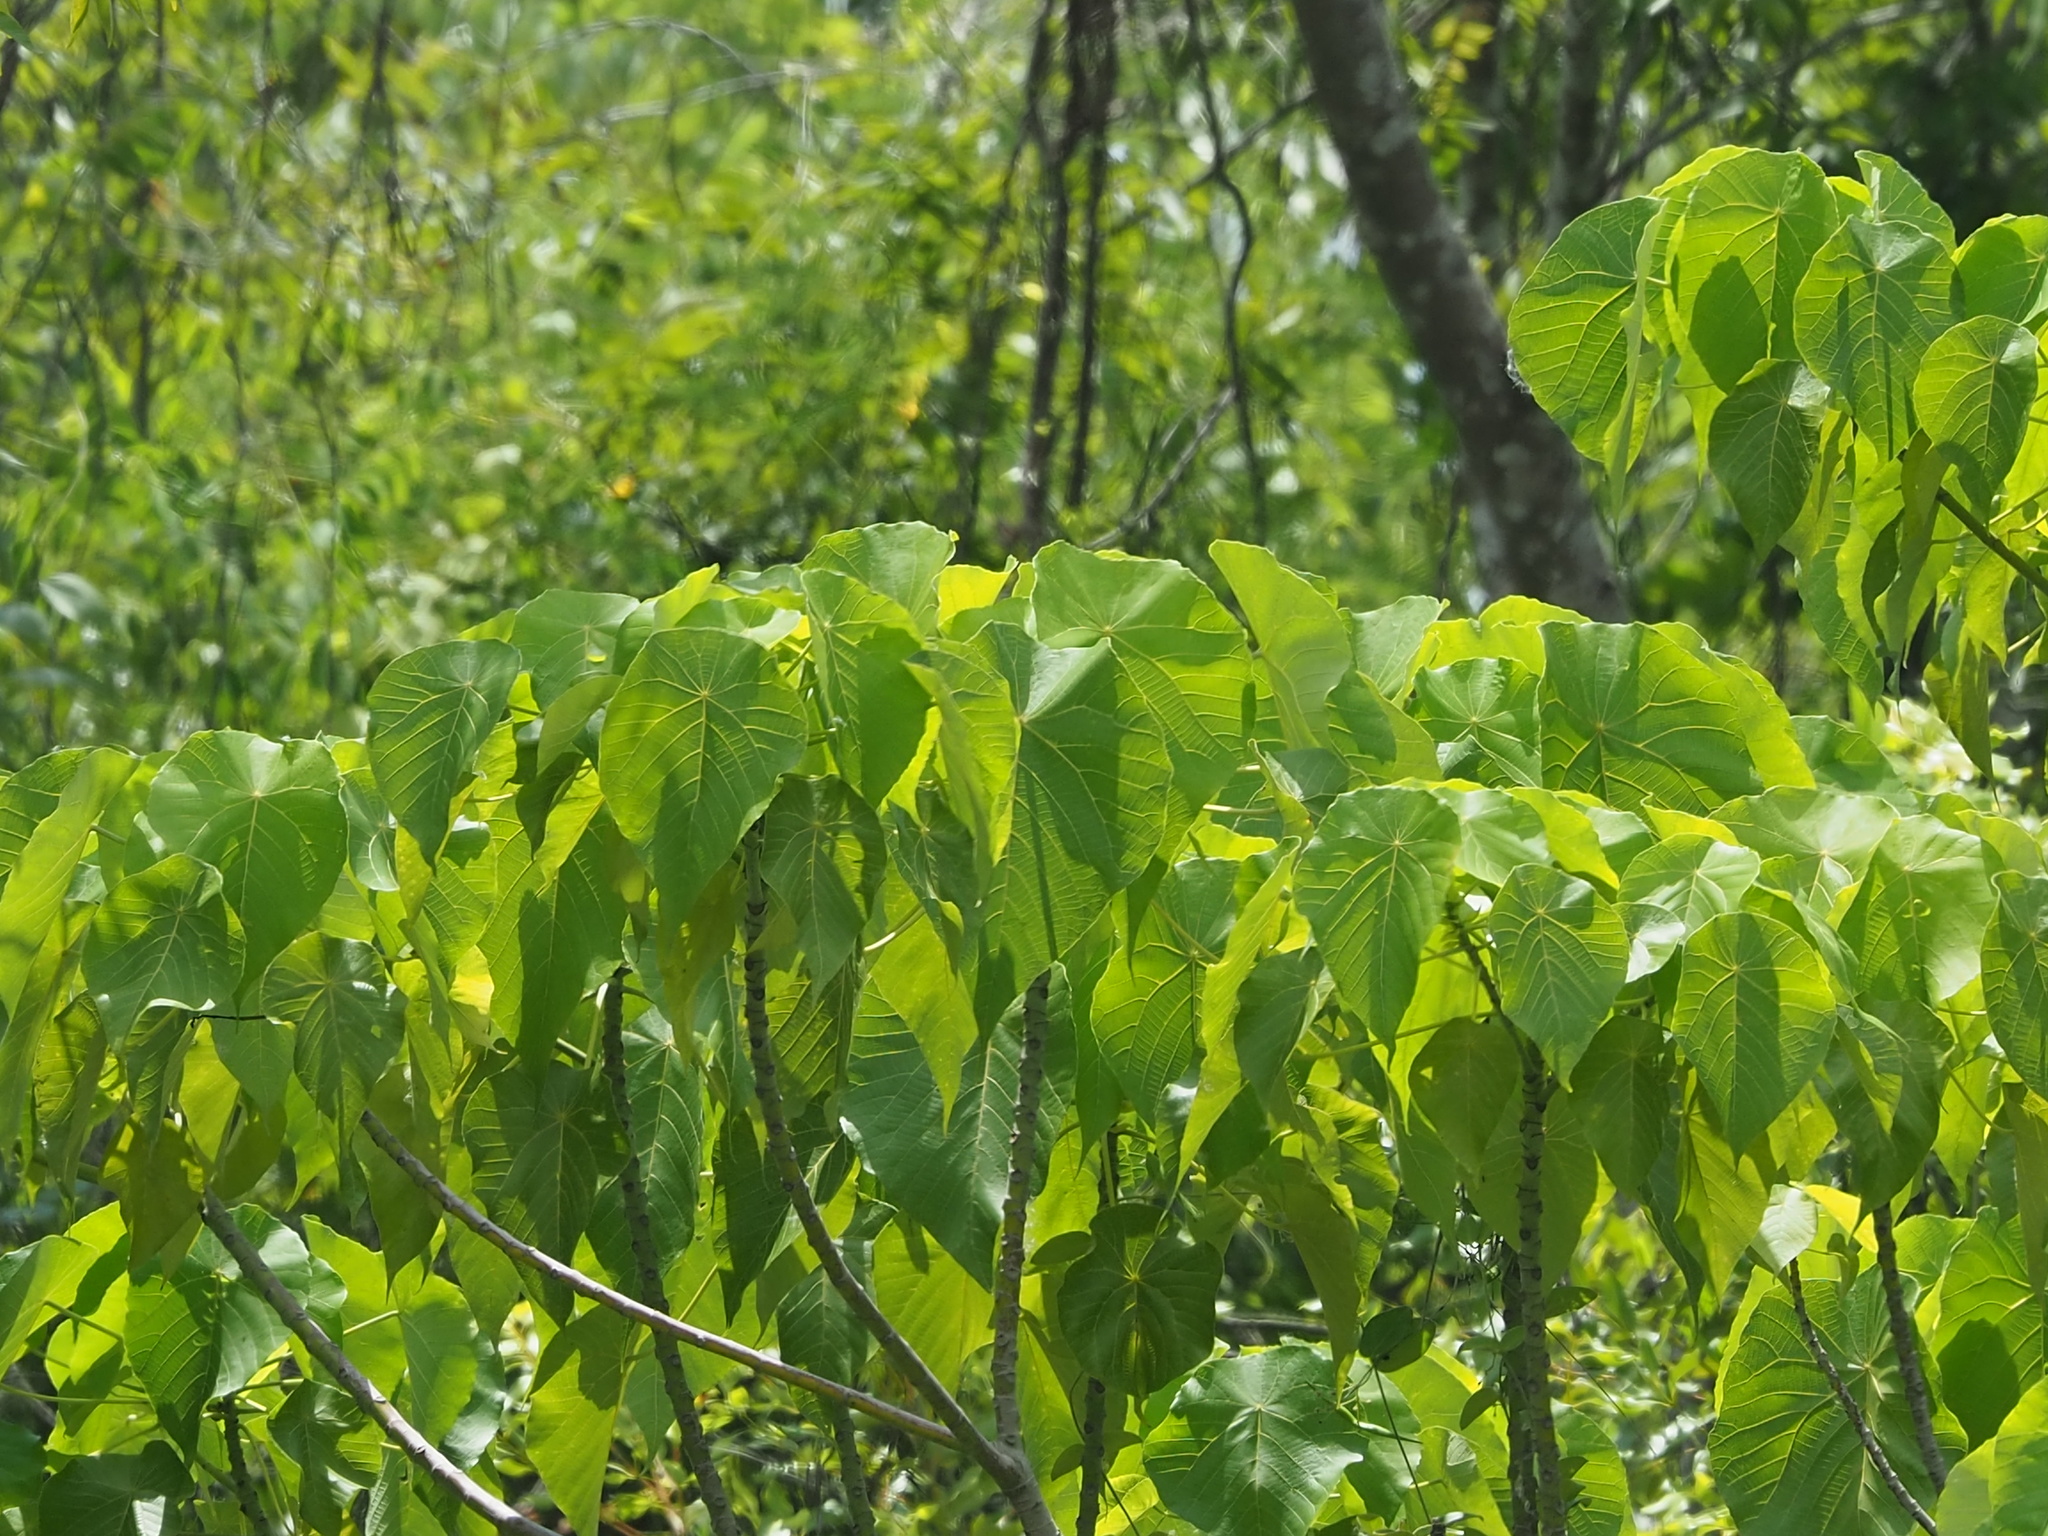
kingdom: Plantae
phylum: Tracheophyta
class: Magnoliopsida
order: Malpighiales
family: Euphorbiaceae
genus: Macaranga
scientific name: Macaranga tanarius
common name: Parasol leaf tree
